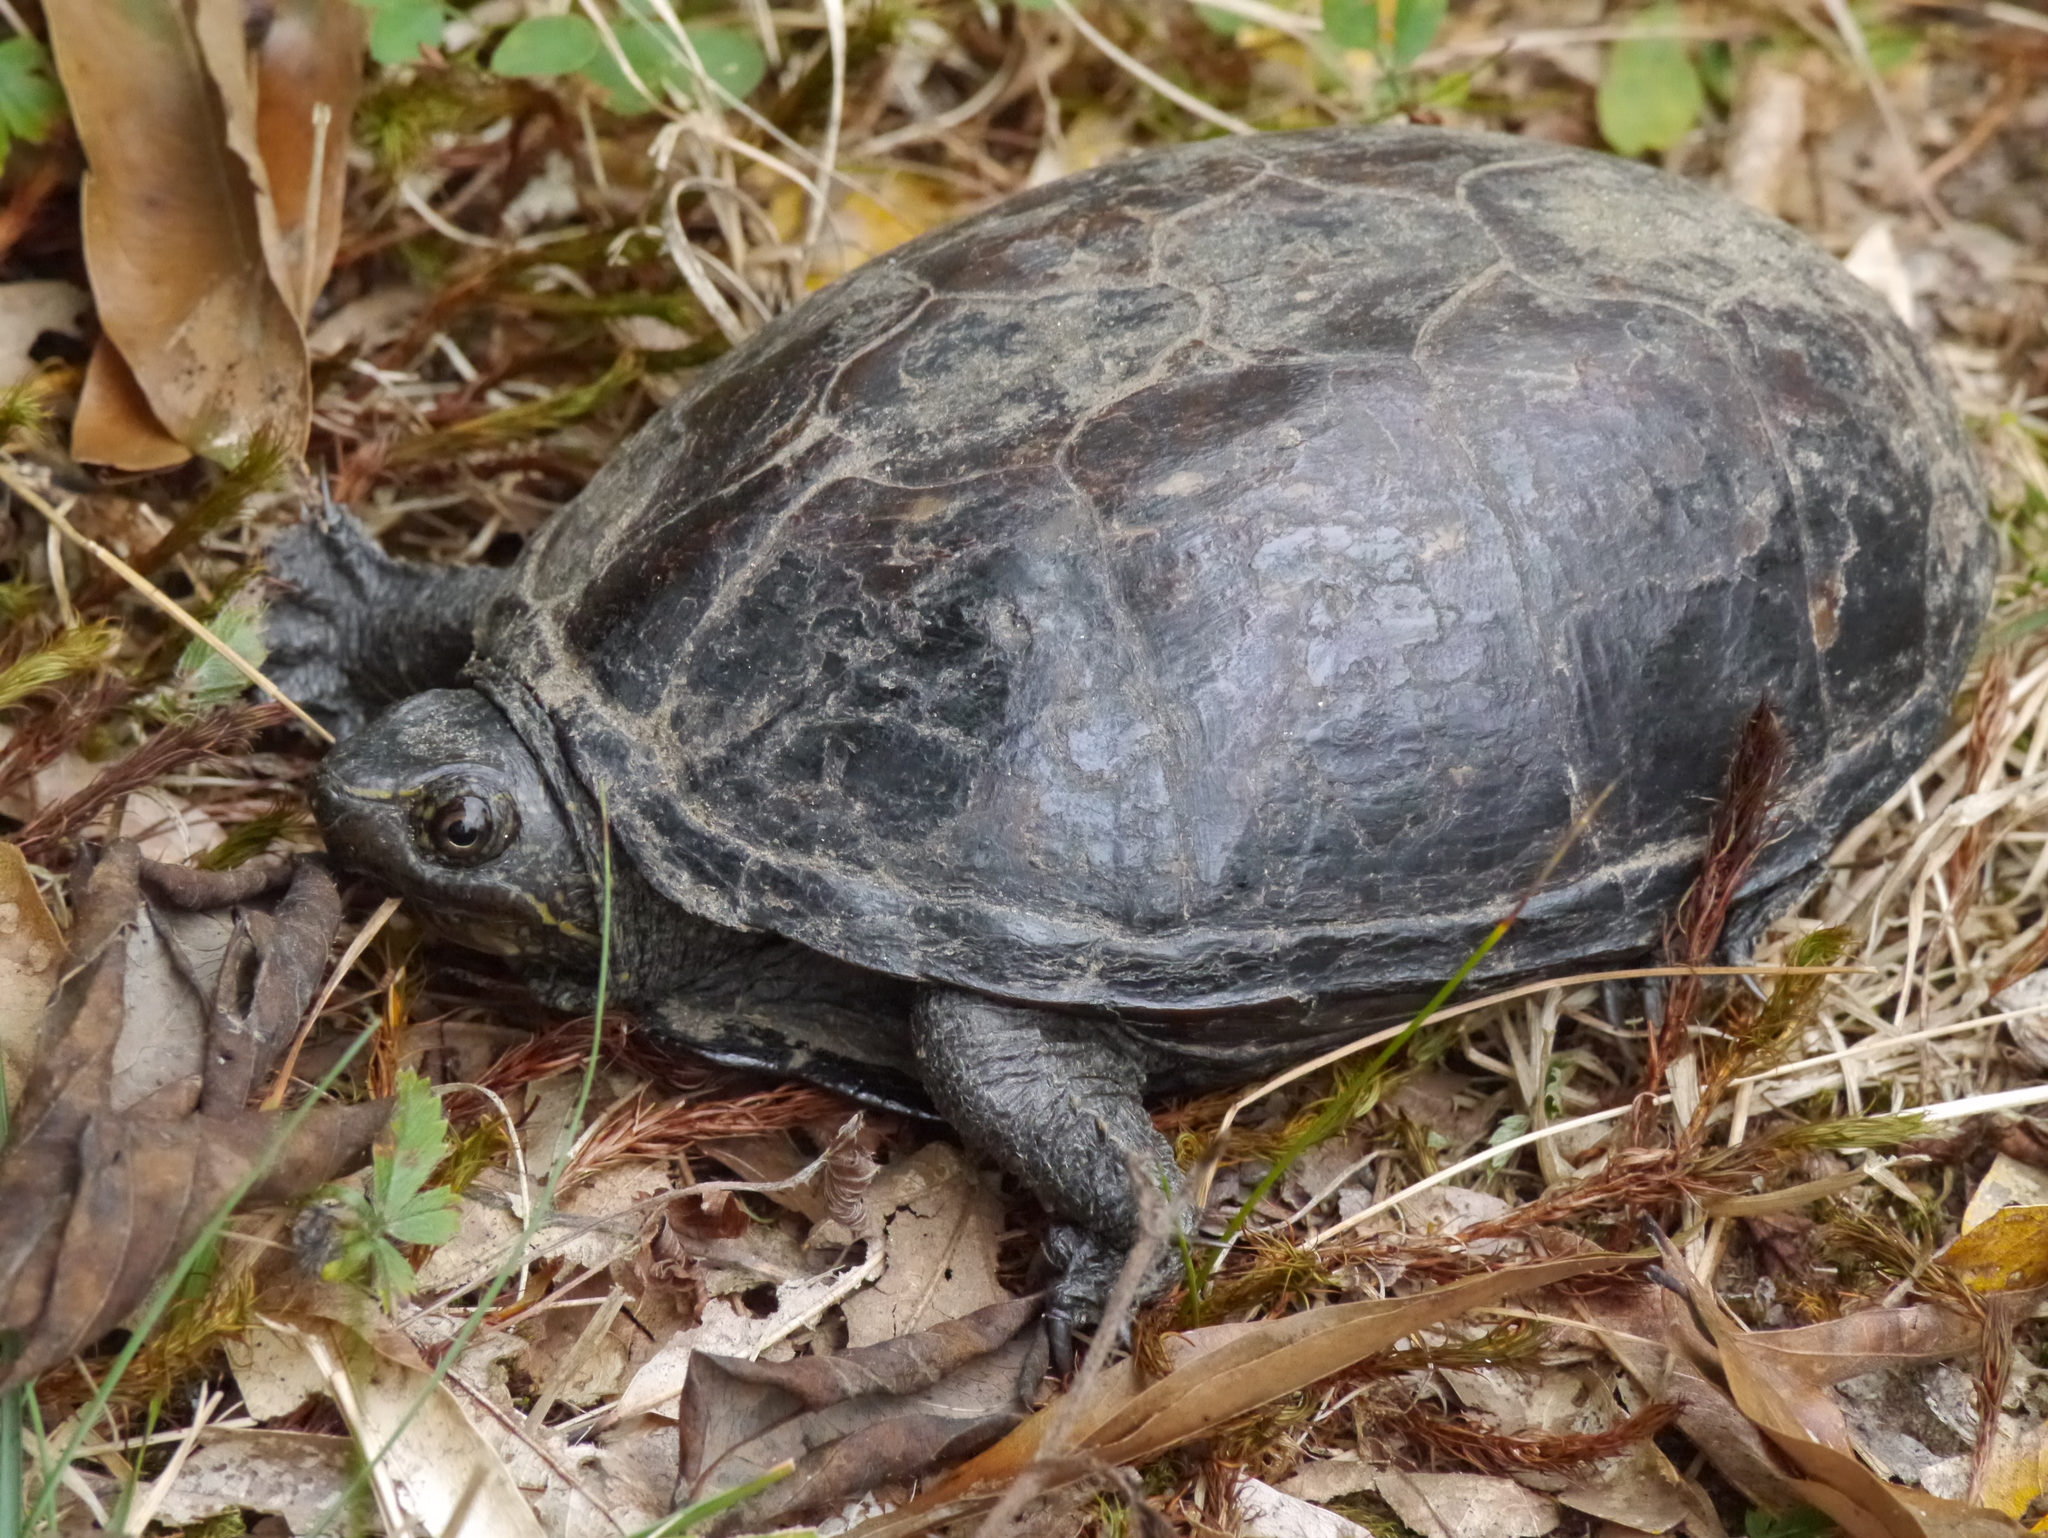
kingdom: Animalia
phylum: Chordata
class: Testudines
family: Kinosternidae
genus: Kinosternon
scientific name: Kinosternon baurii
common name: Striped mud turtle
